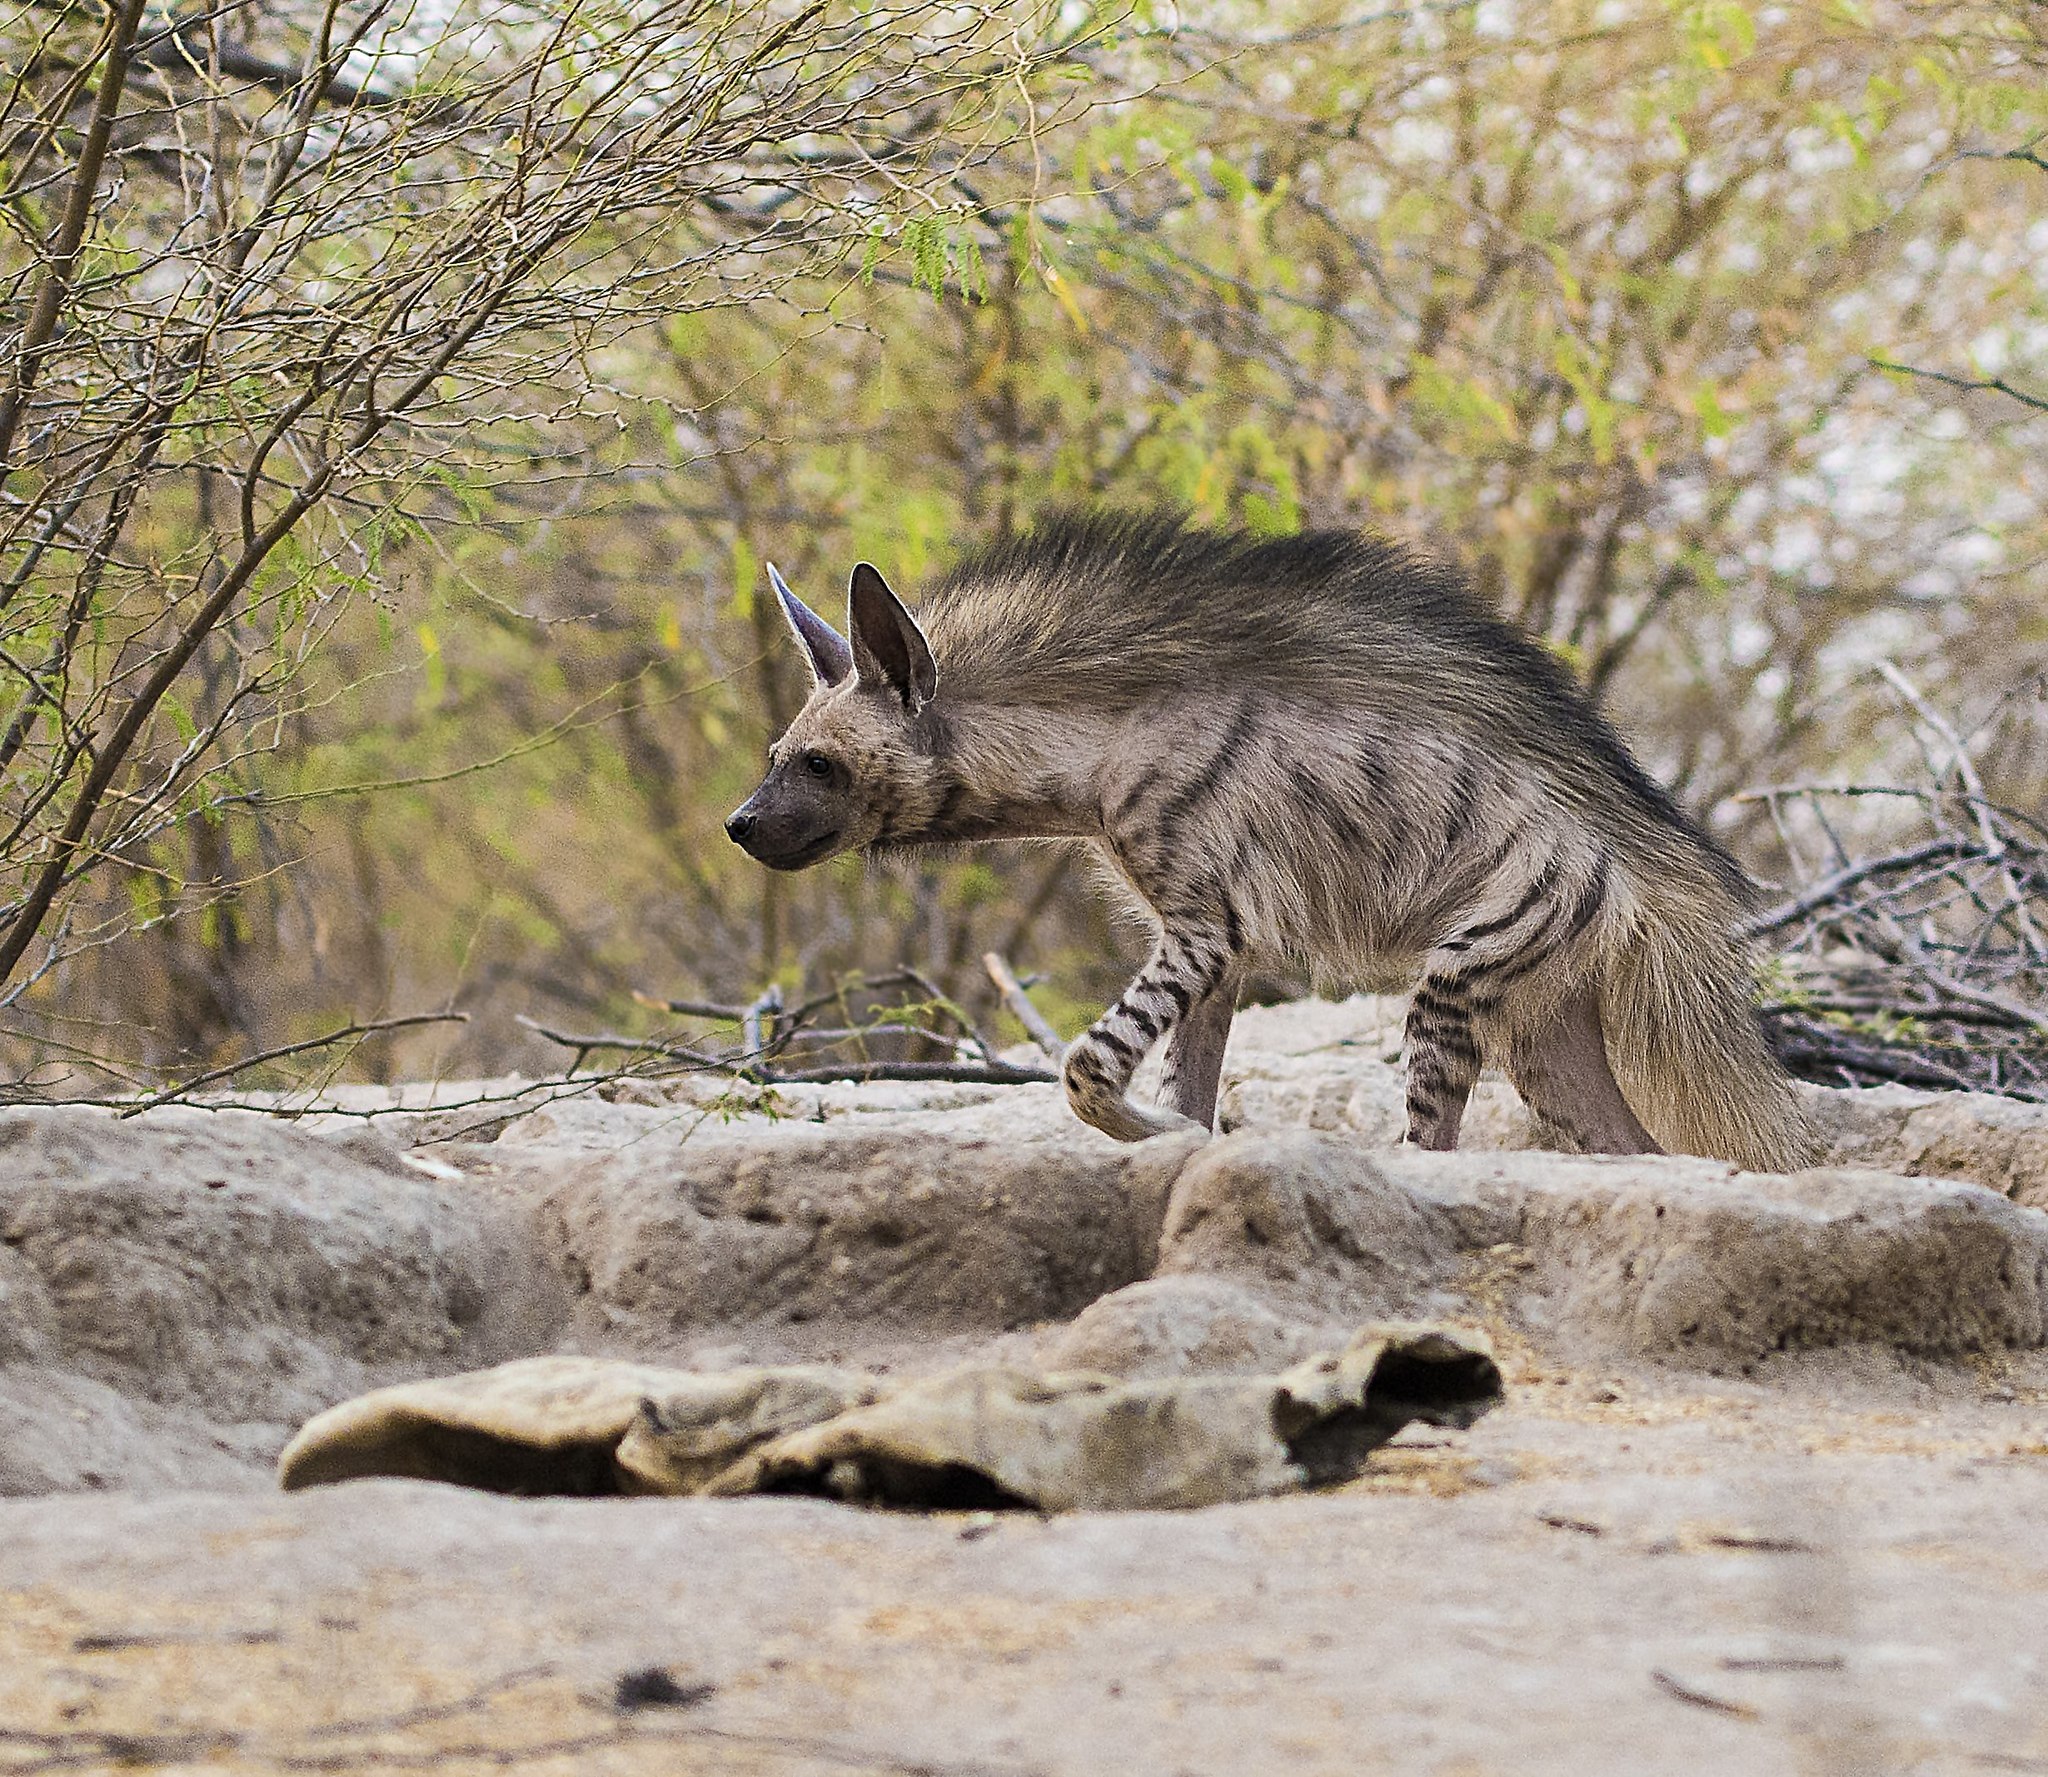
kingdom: Animalia
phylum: Chordata
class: Mammalia
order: Carnivora
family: Hyaenidae
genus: Hyaena
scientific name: Hyaena hyaena
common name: Striped hyaena
